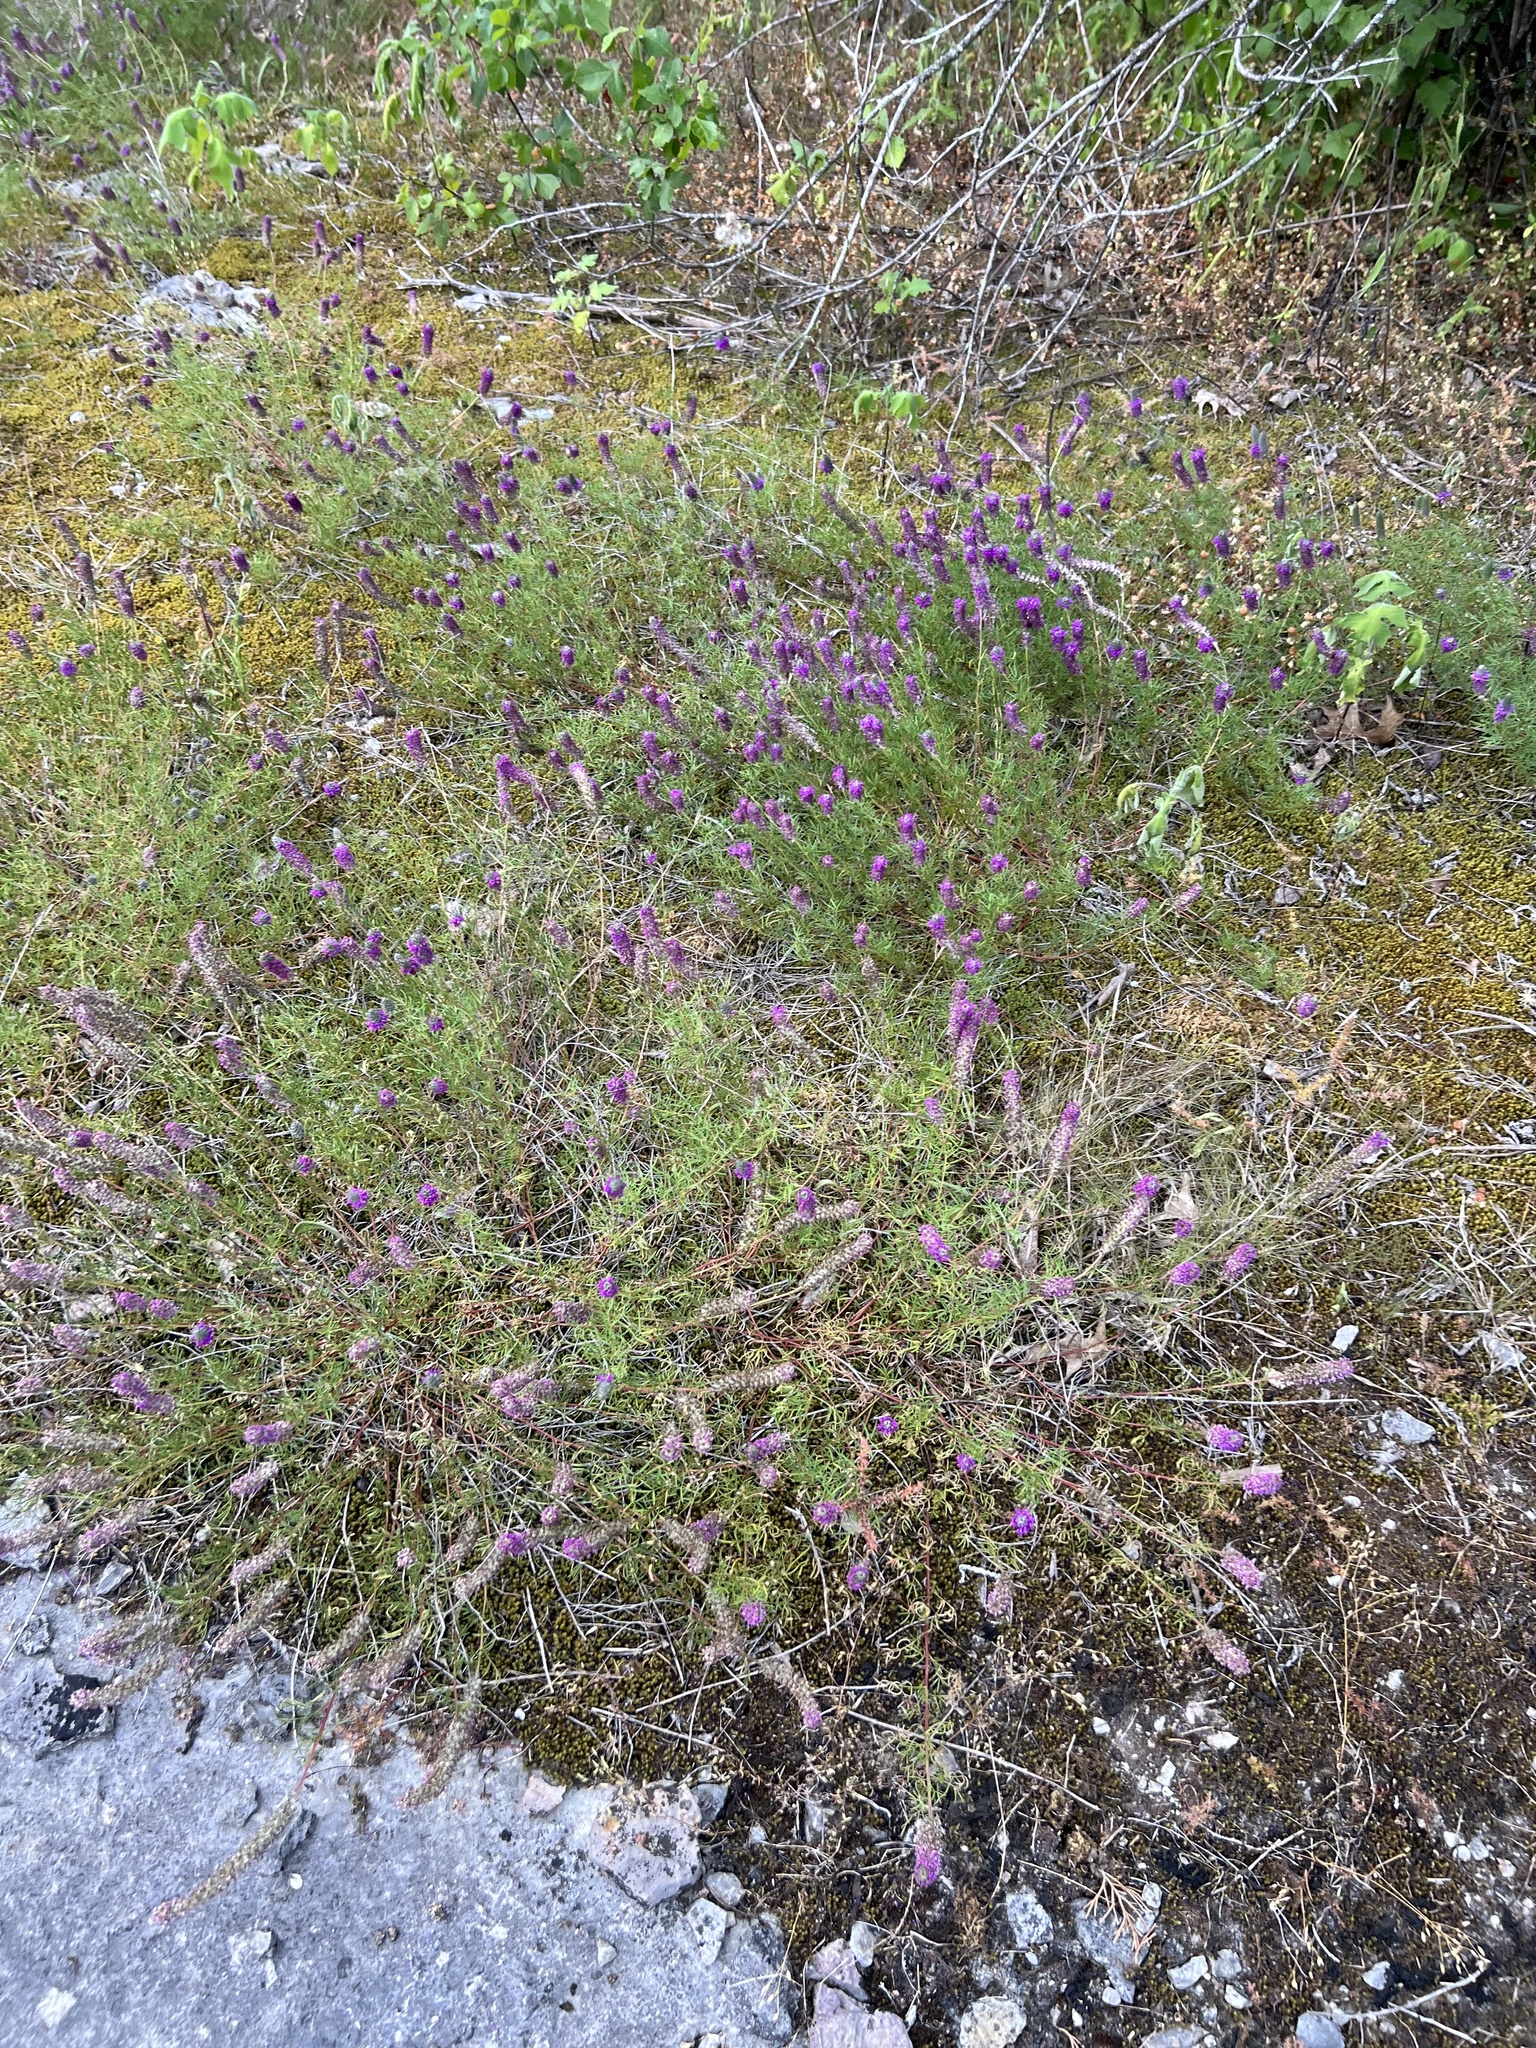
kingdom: Plantae
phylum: Tracheophyta
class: Magnoliopsida
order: Fabales
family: Fabaceae
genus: Dalea
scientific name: Dalea gattingeri
